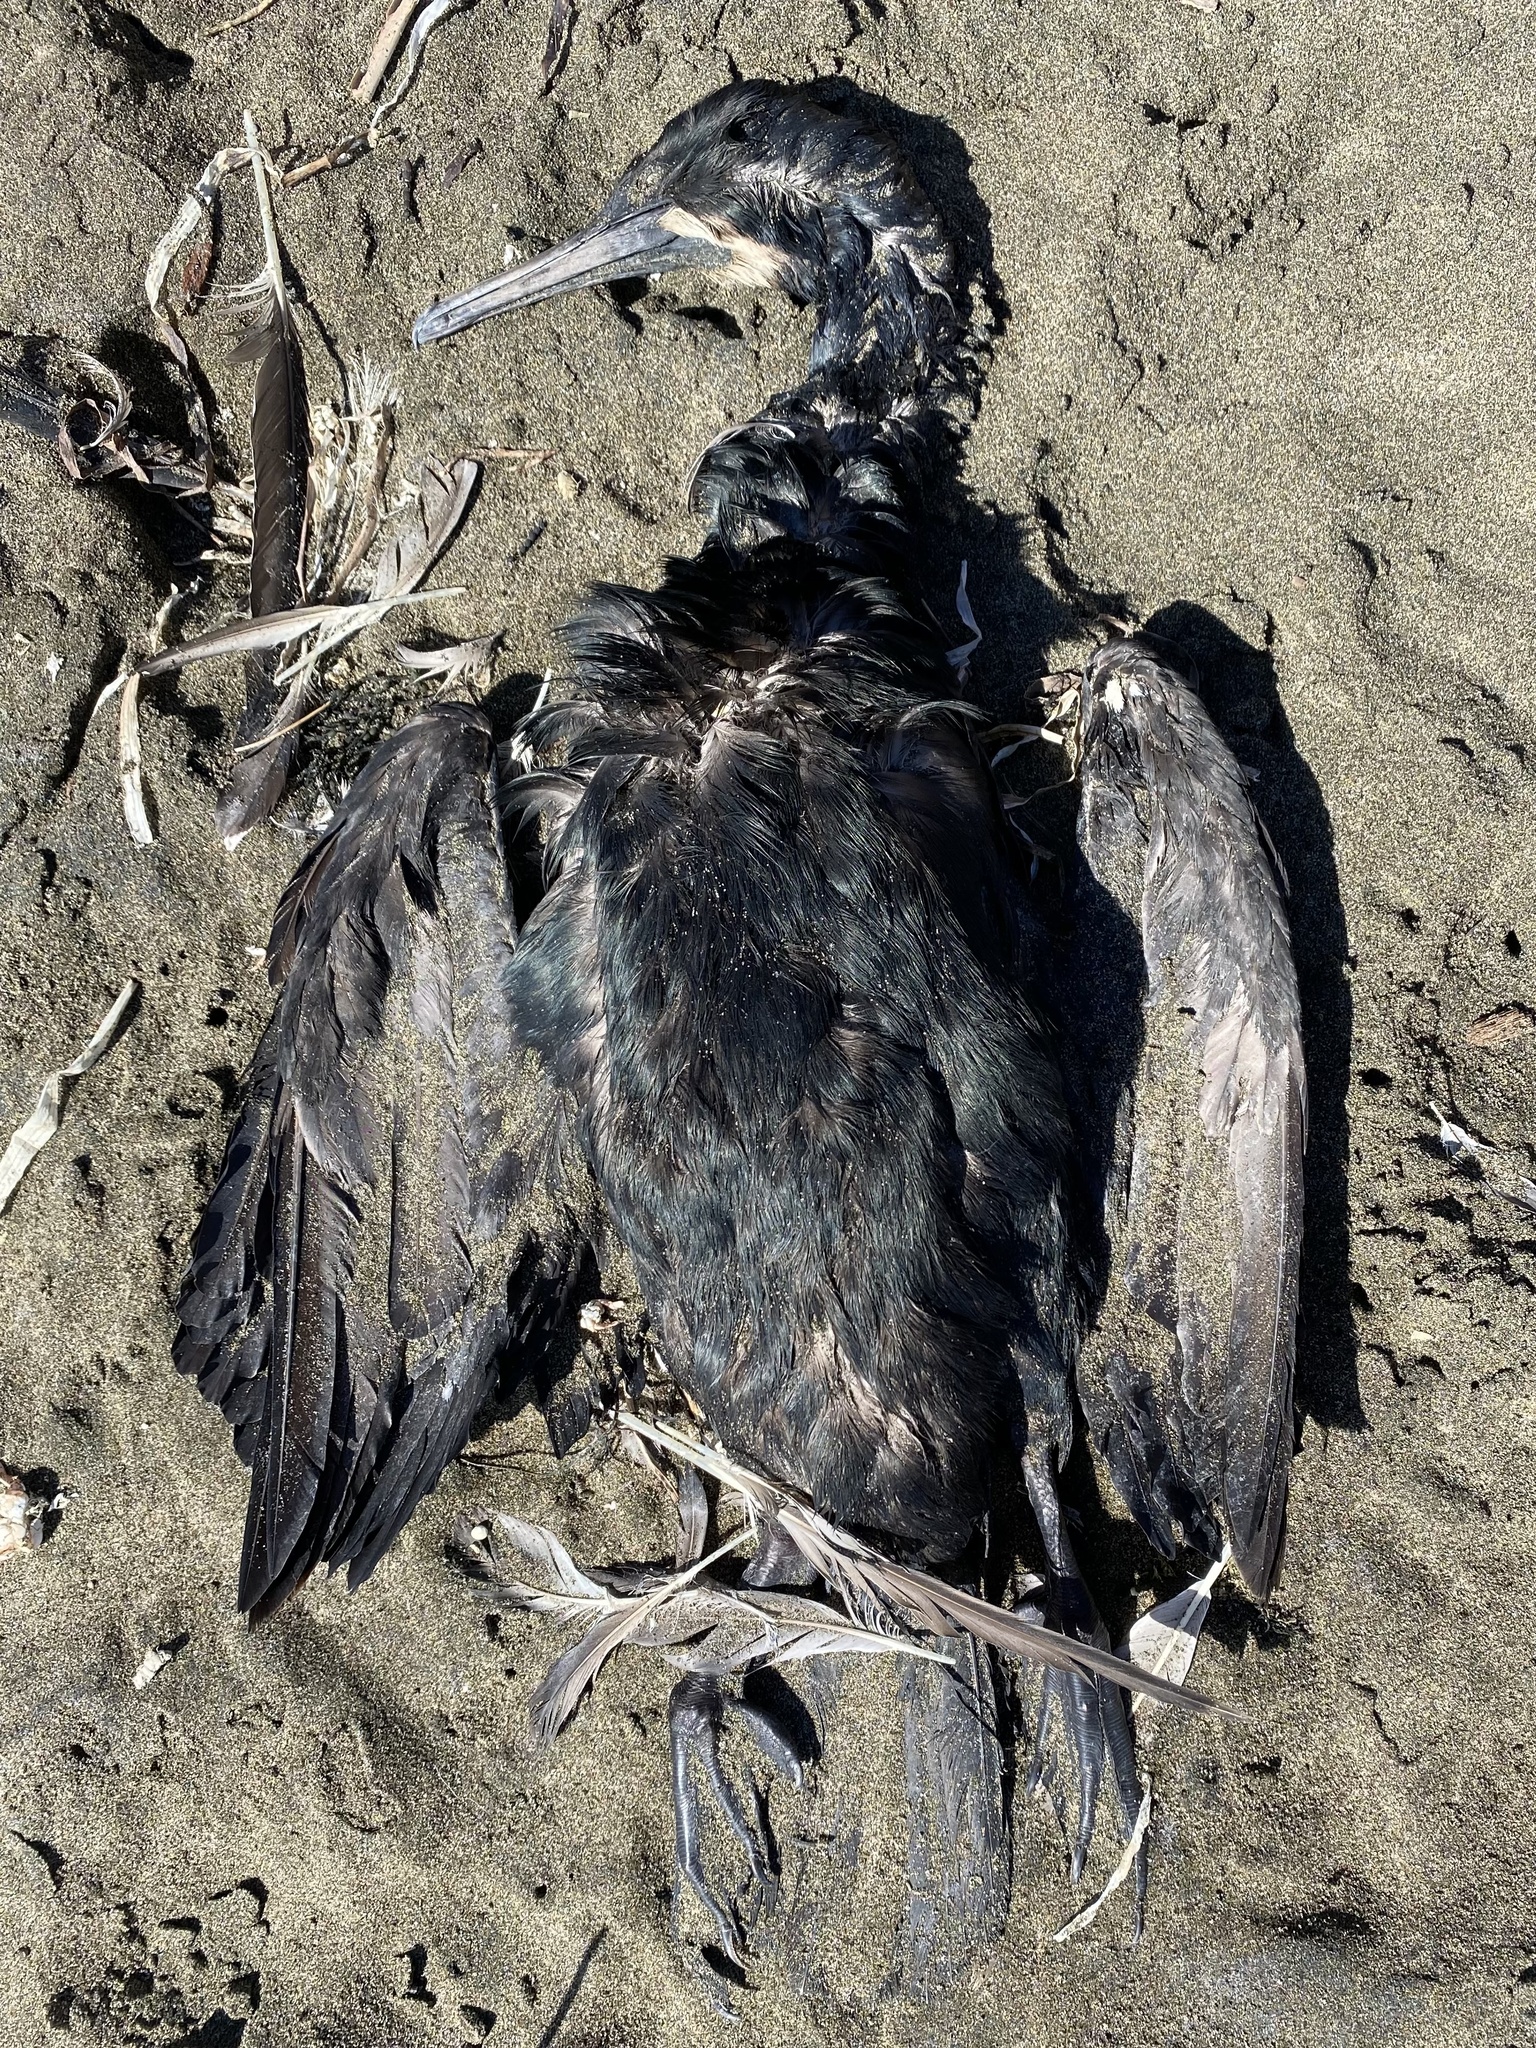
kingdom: Animalia
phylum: Chordata
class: Aves
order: Suliformes
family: Phalacrocoracidae
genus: Urile
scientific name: Urile penicillatus
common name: Brandt's cormorant
